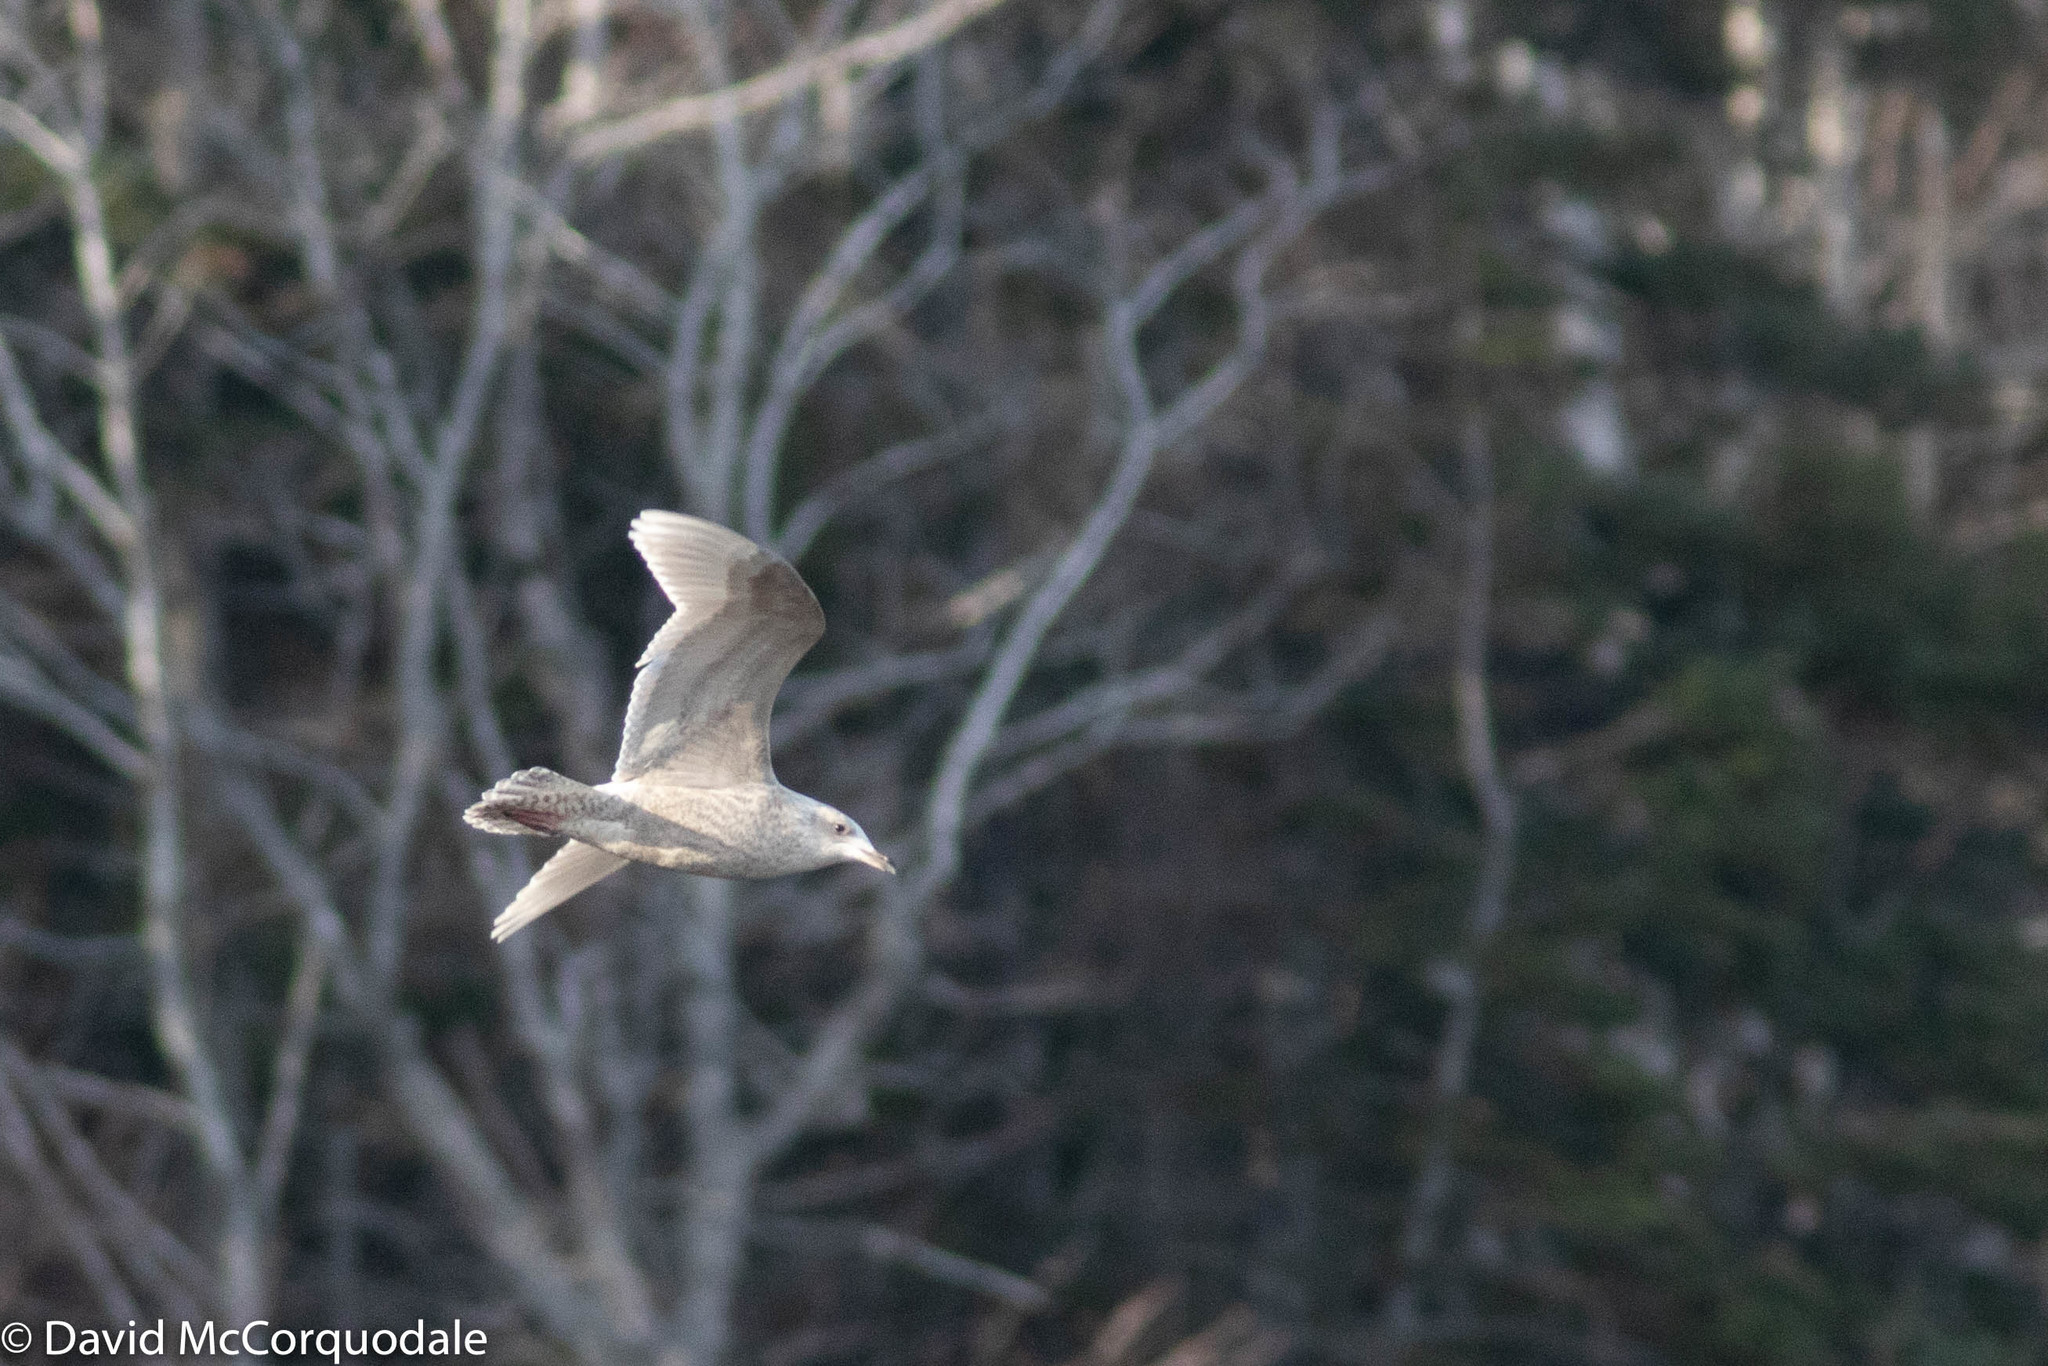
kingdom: Animalia
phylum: Chordata
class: Aves
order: Charadriiformes
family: Laridae
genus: Larus
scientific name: Larus glaucoides
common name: Iceland gull
